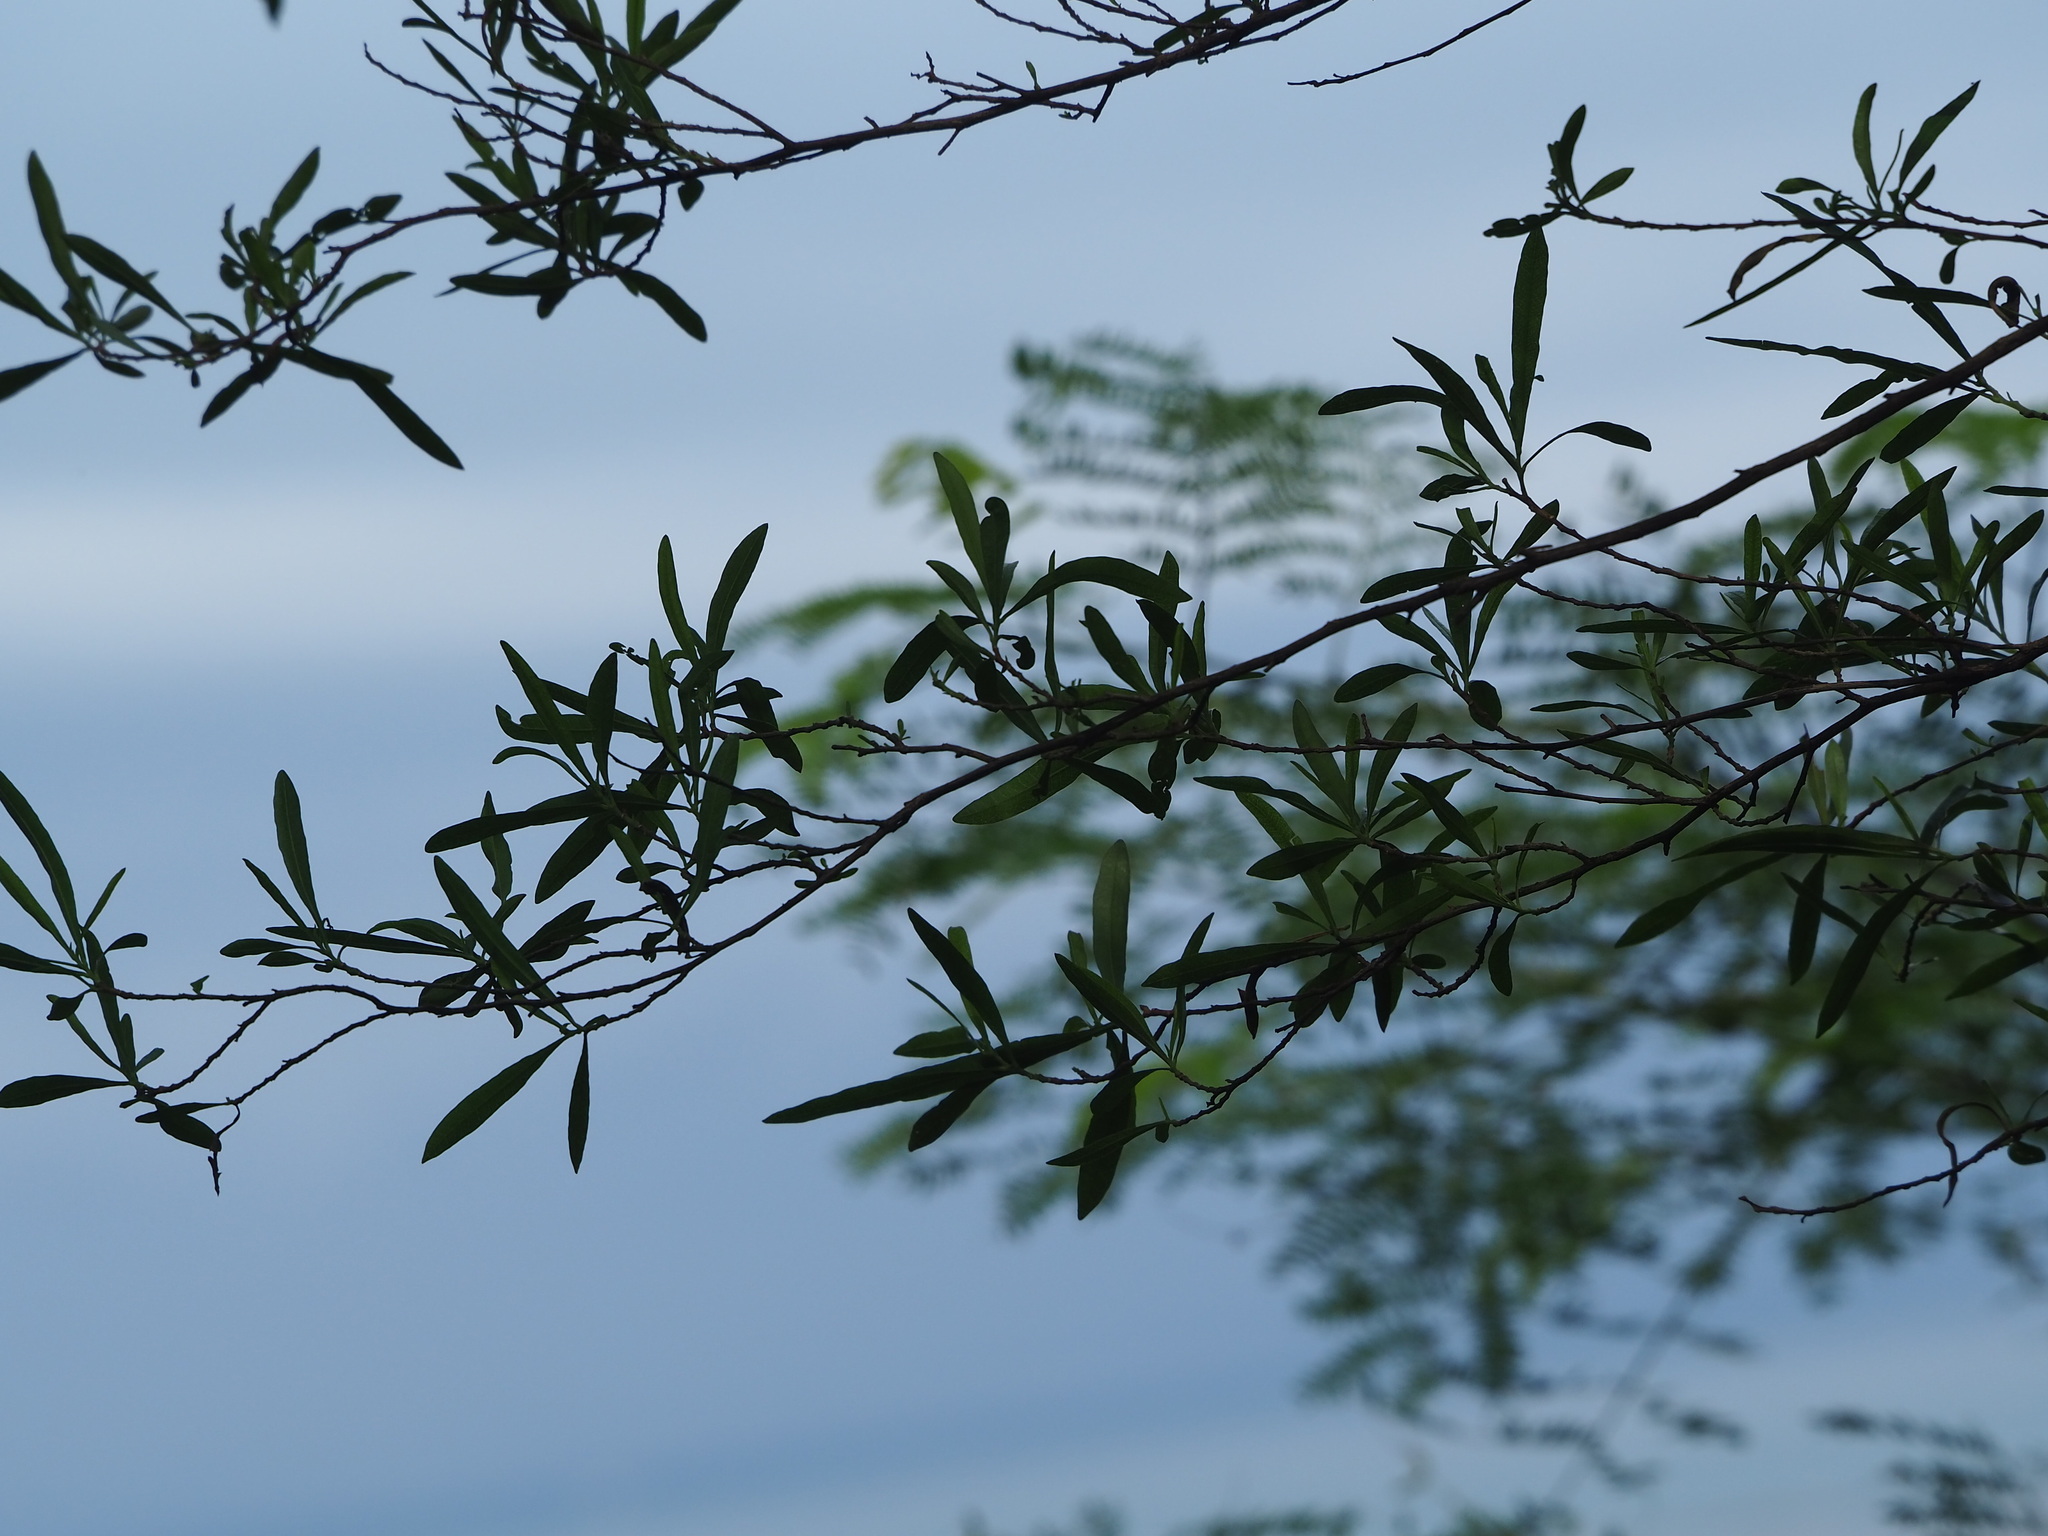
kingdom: Plantae
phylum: Tracheophyta
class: Magnoliopsida
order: Sapindales
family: Sapindaceae
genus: Dodonaea
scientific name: Dodonaea viscosa
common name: Hopbush
